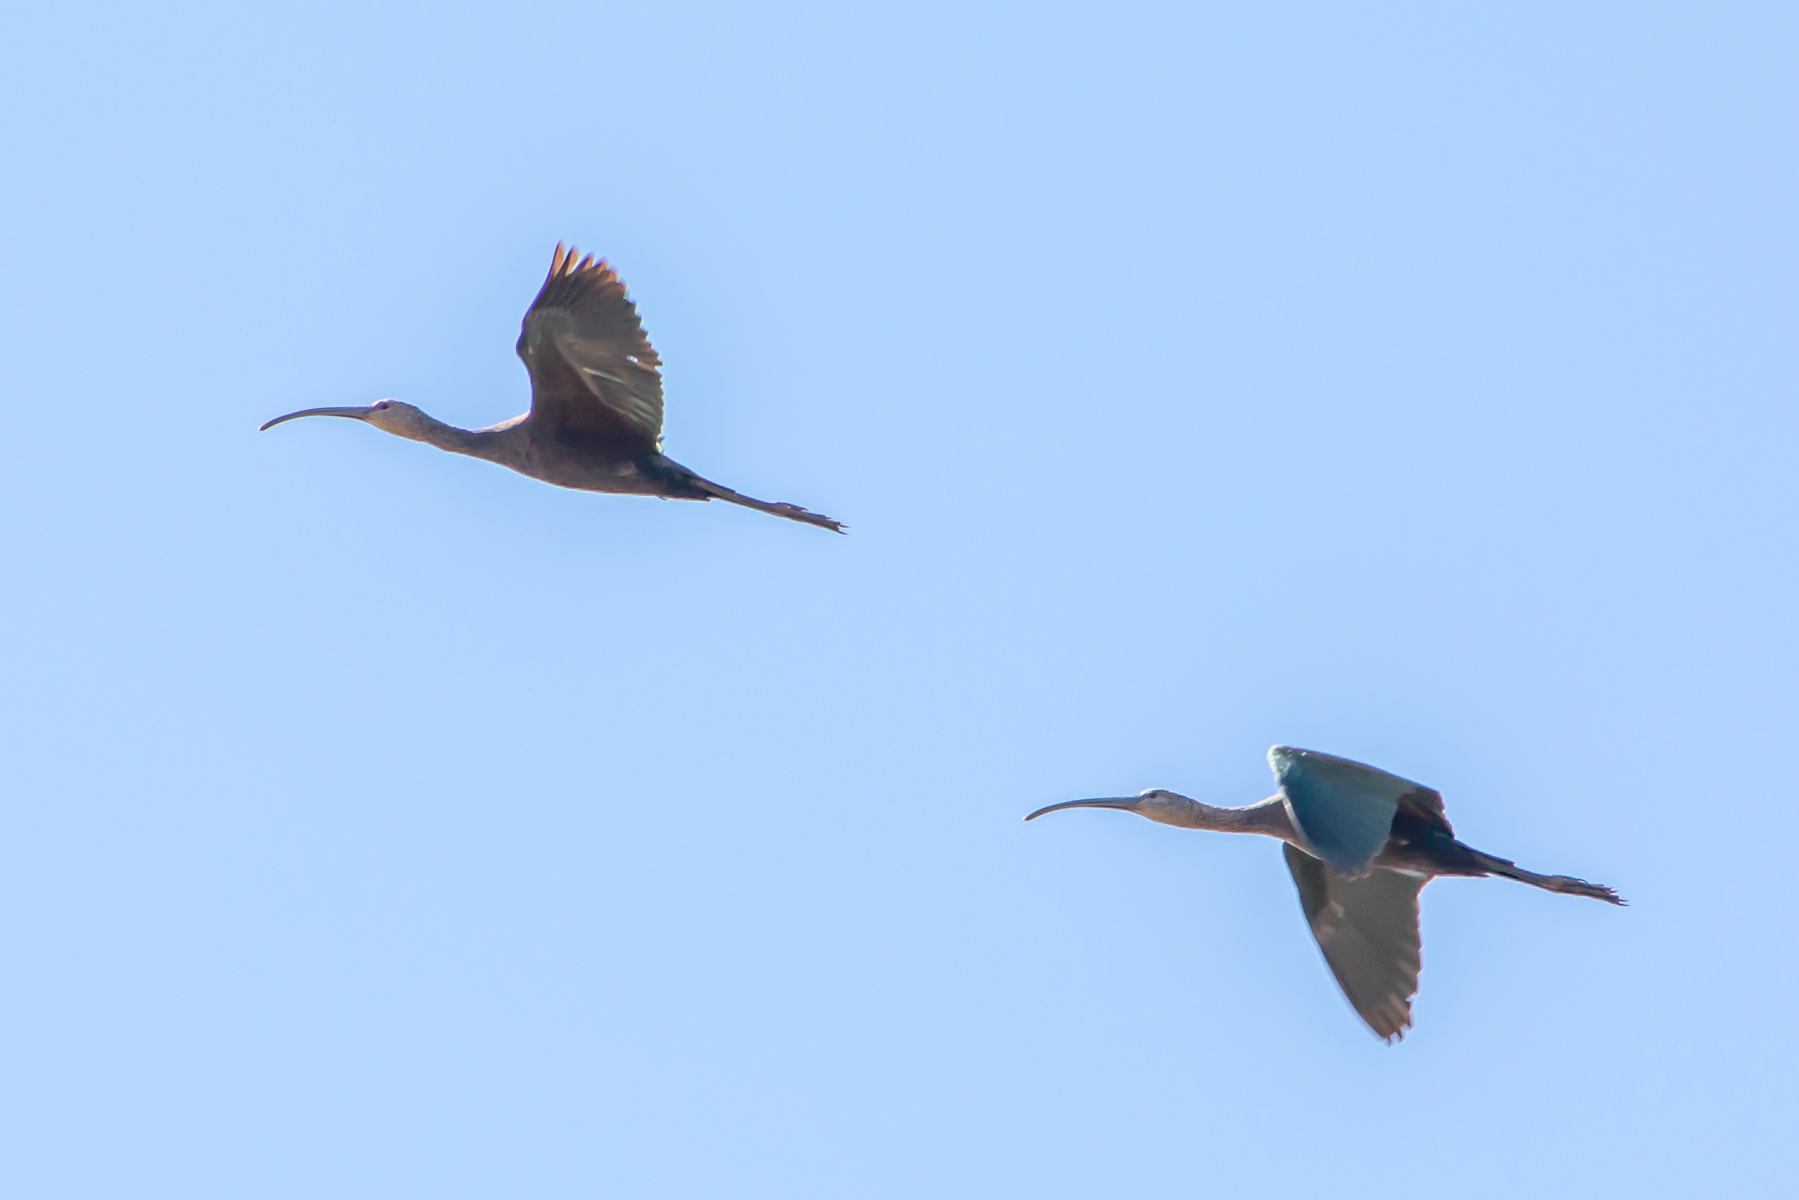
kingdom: Animalia
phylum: Chordata
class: Aves
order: Pelecaniformes
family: Threskiornithidae
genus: Plegadis
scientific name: Plegadis chihi
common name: White-faced ibis
